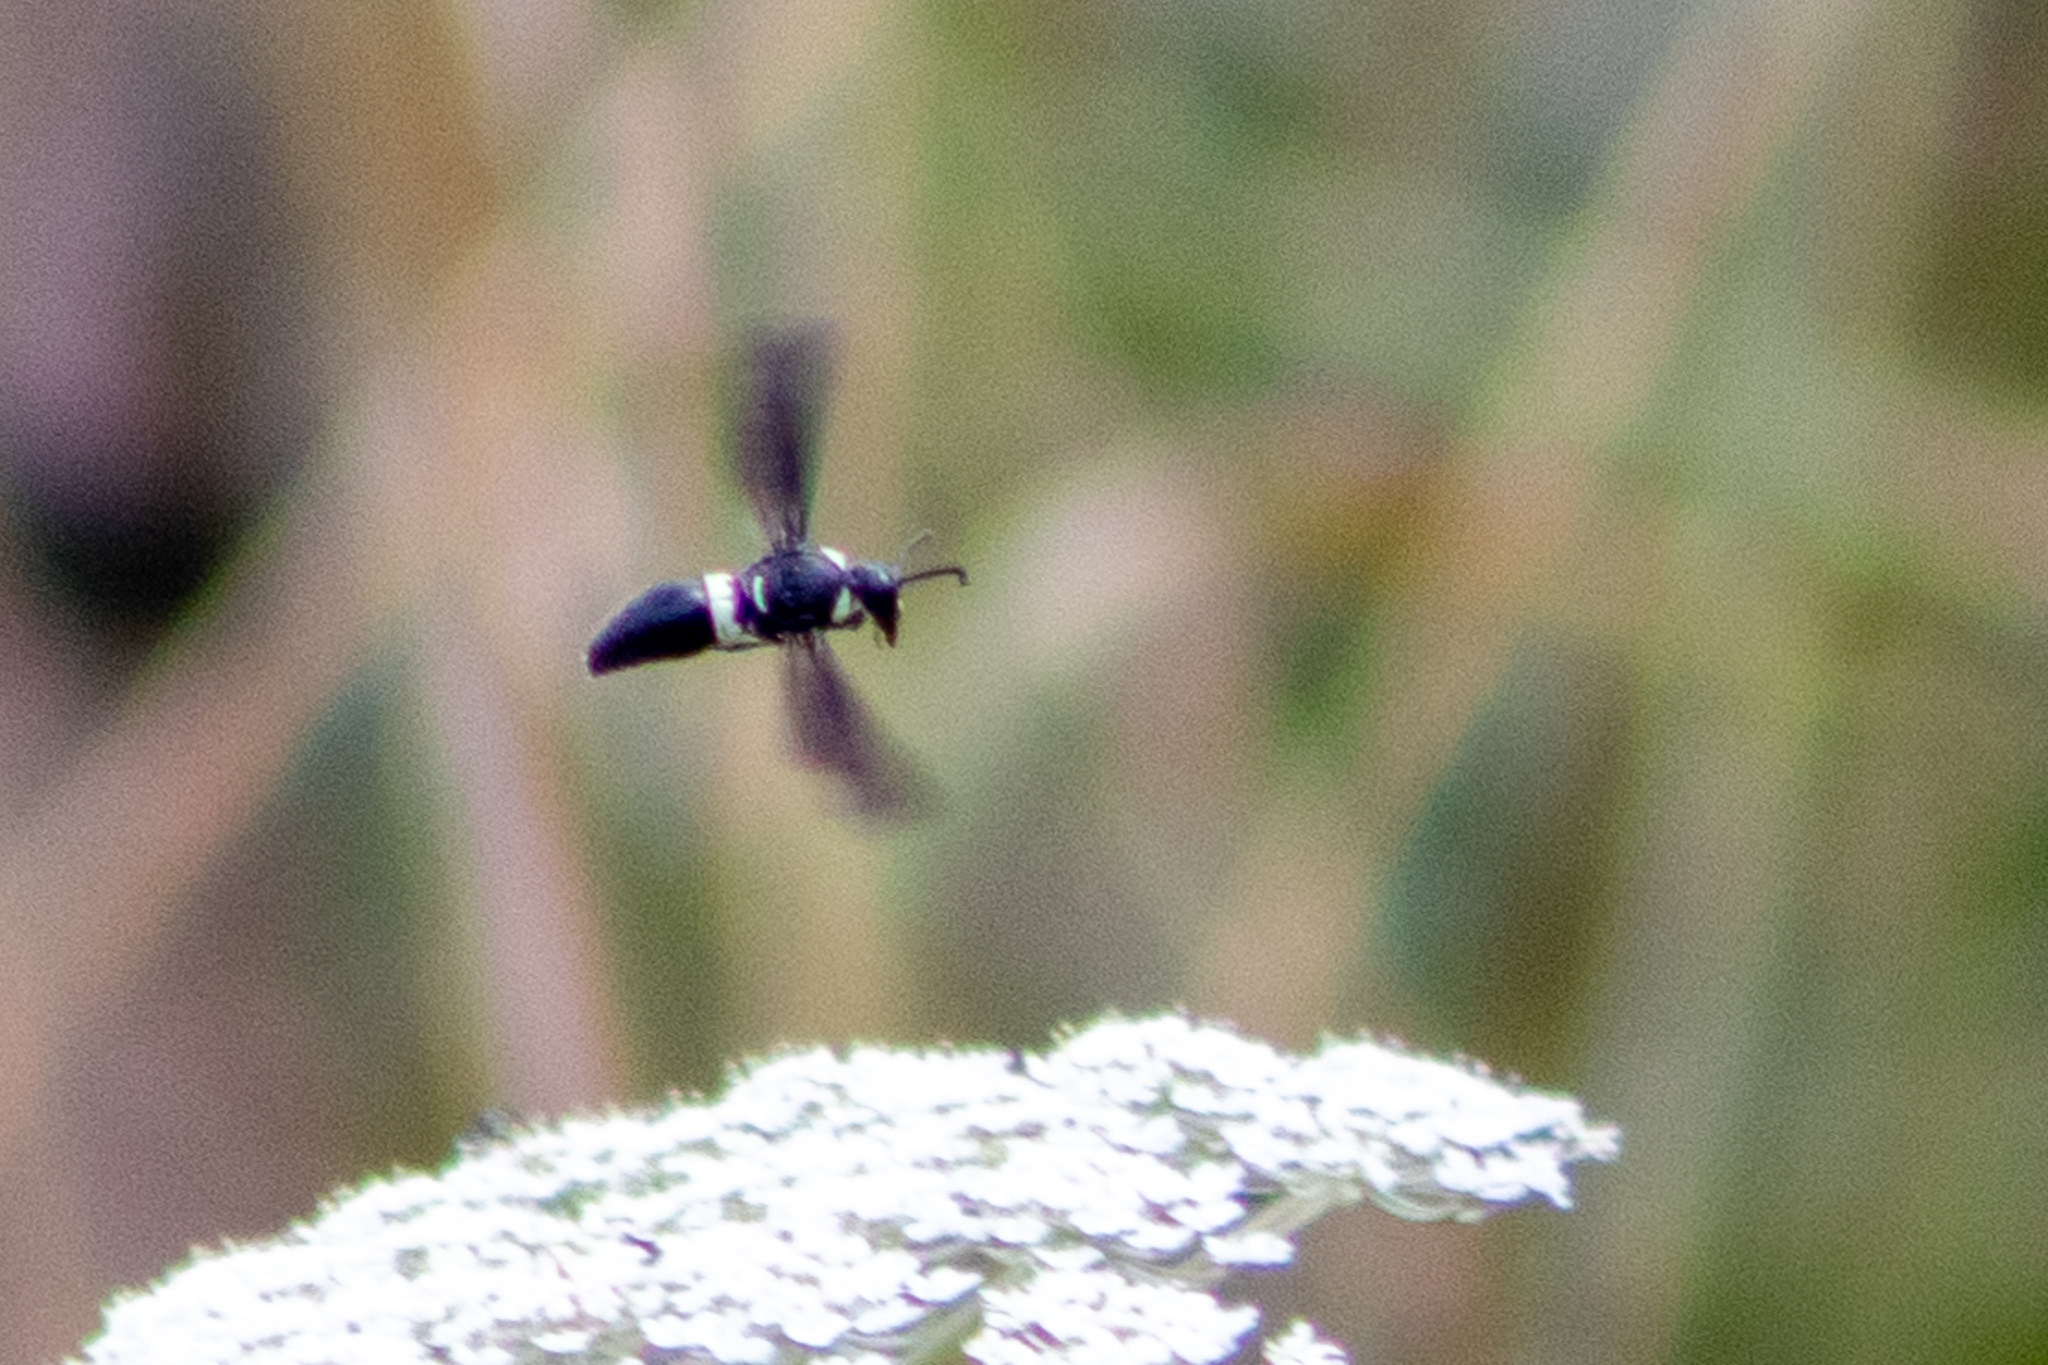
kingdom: Animalia
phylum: Arthropoda
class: Insecta
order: Hymenoptera
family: Eumenidae
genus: Monobia
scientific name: Monobia quadridens
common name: Four-toothed mason wasp
